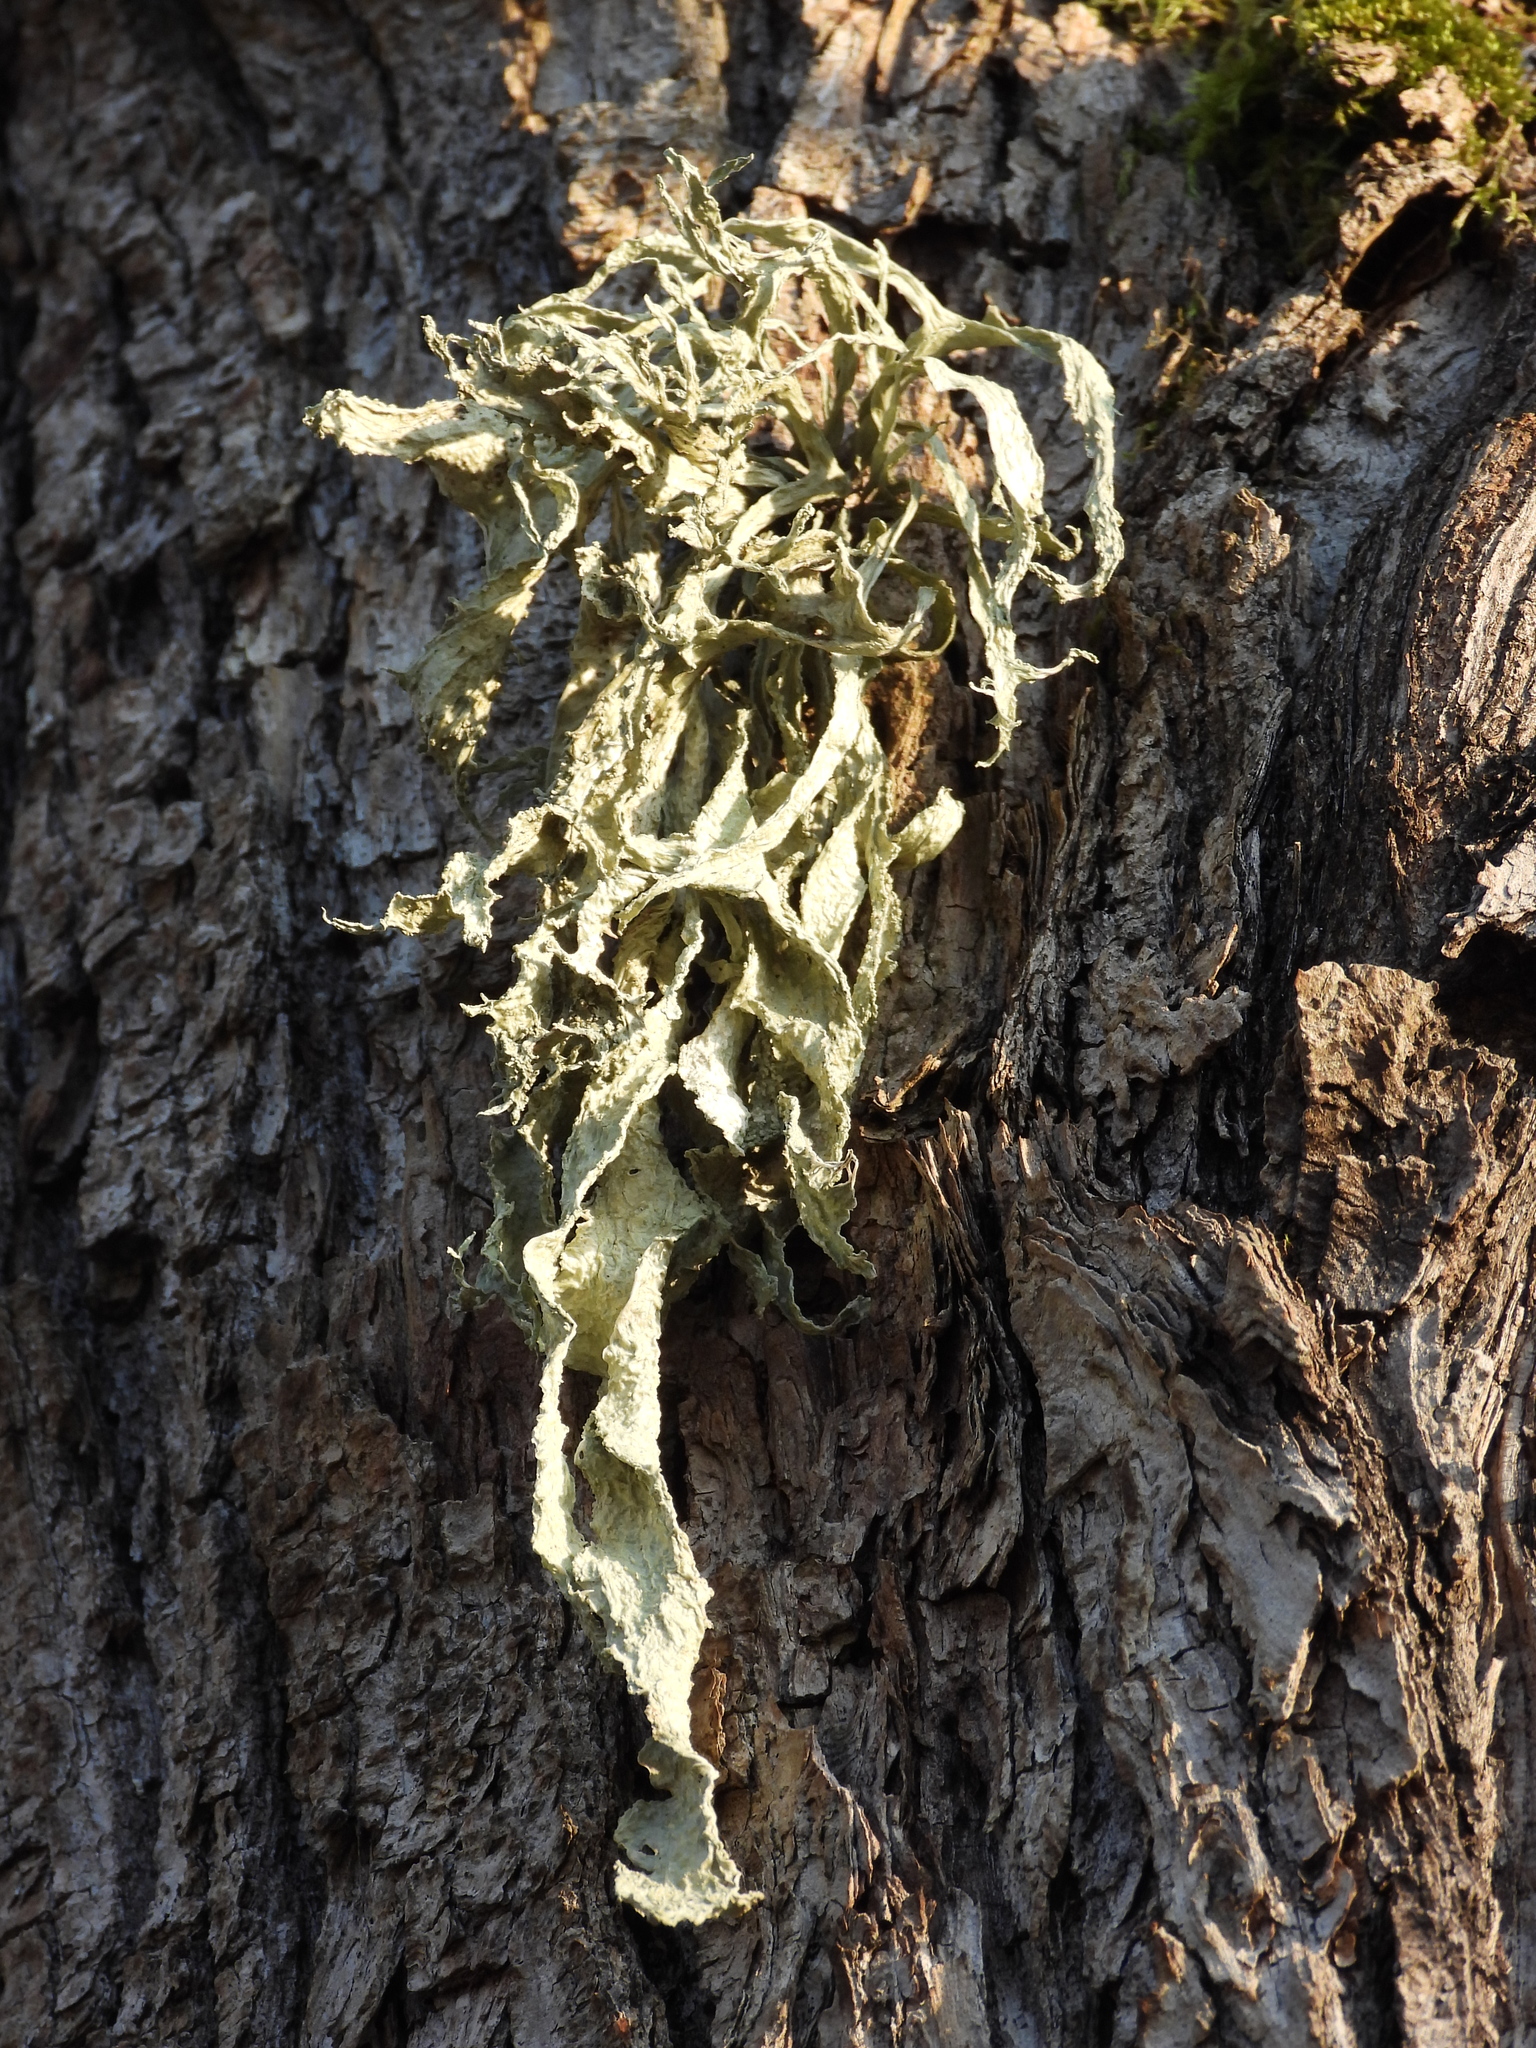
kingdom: Fungi
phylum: Ascomycota
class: Lecanoromycetes
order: Lecanorales
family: Ramalinaceae
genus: Ramalina
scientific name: Ramalina fraxinea
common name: Cartilage lichen
